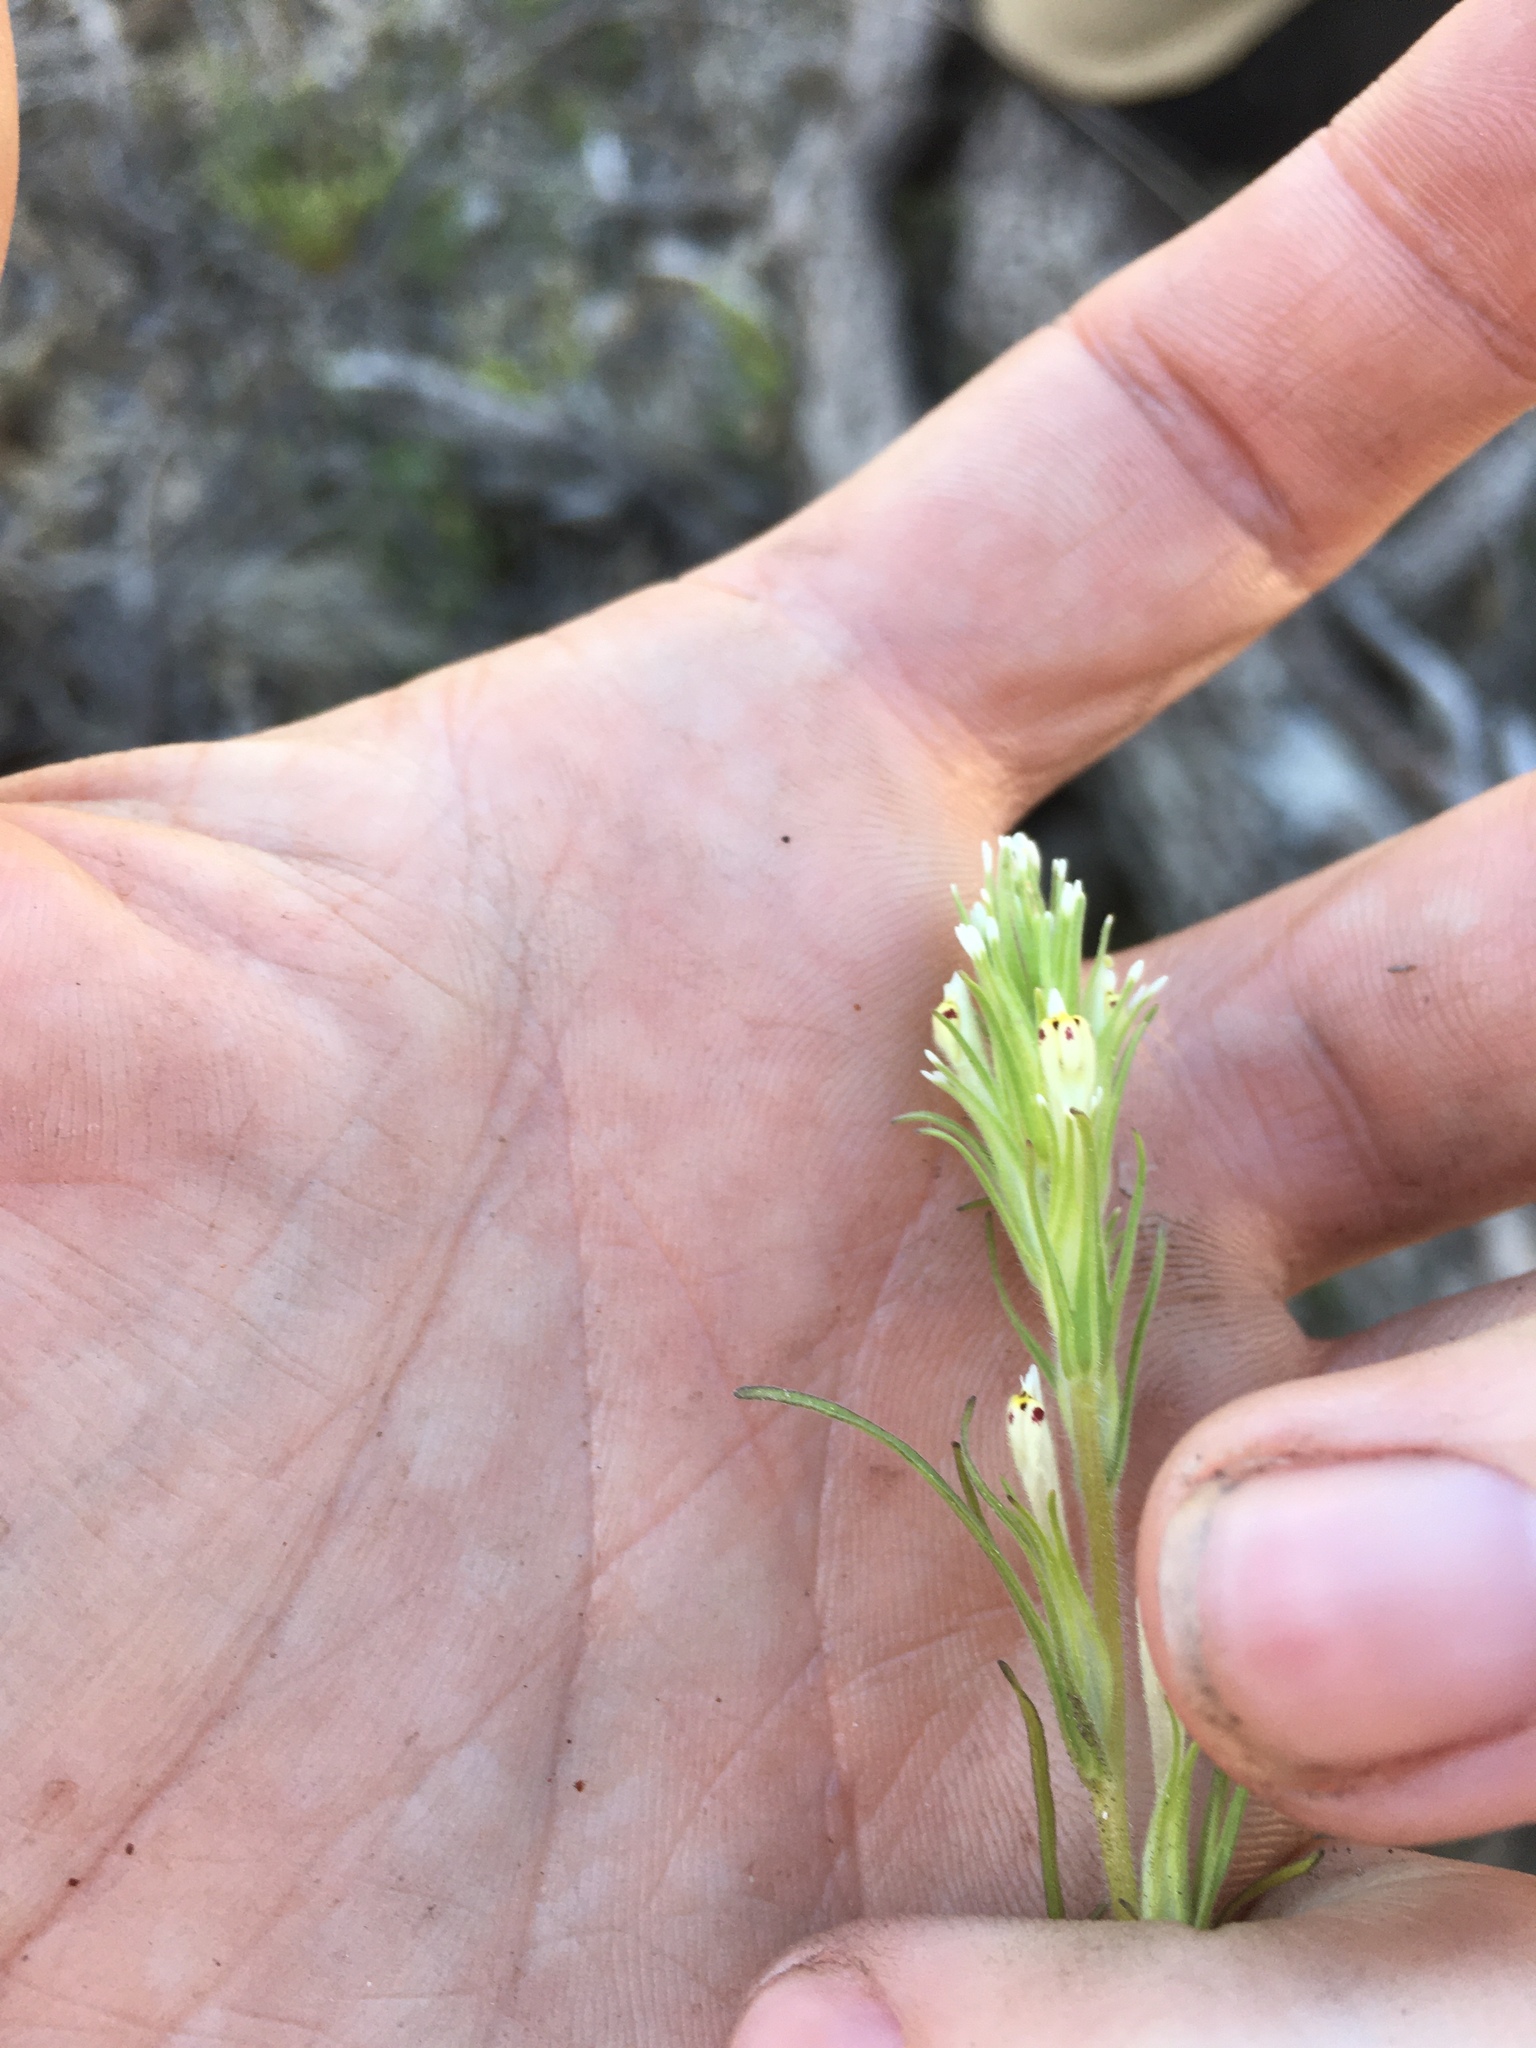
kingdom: Plantae
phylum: Tracheophyta
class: Magnoliopsida
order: Lamiales
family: Orobanchaceae
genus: Castilleja
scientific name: Castilleja attenuata
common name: Valley tassels
